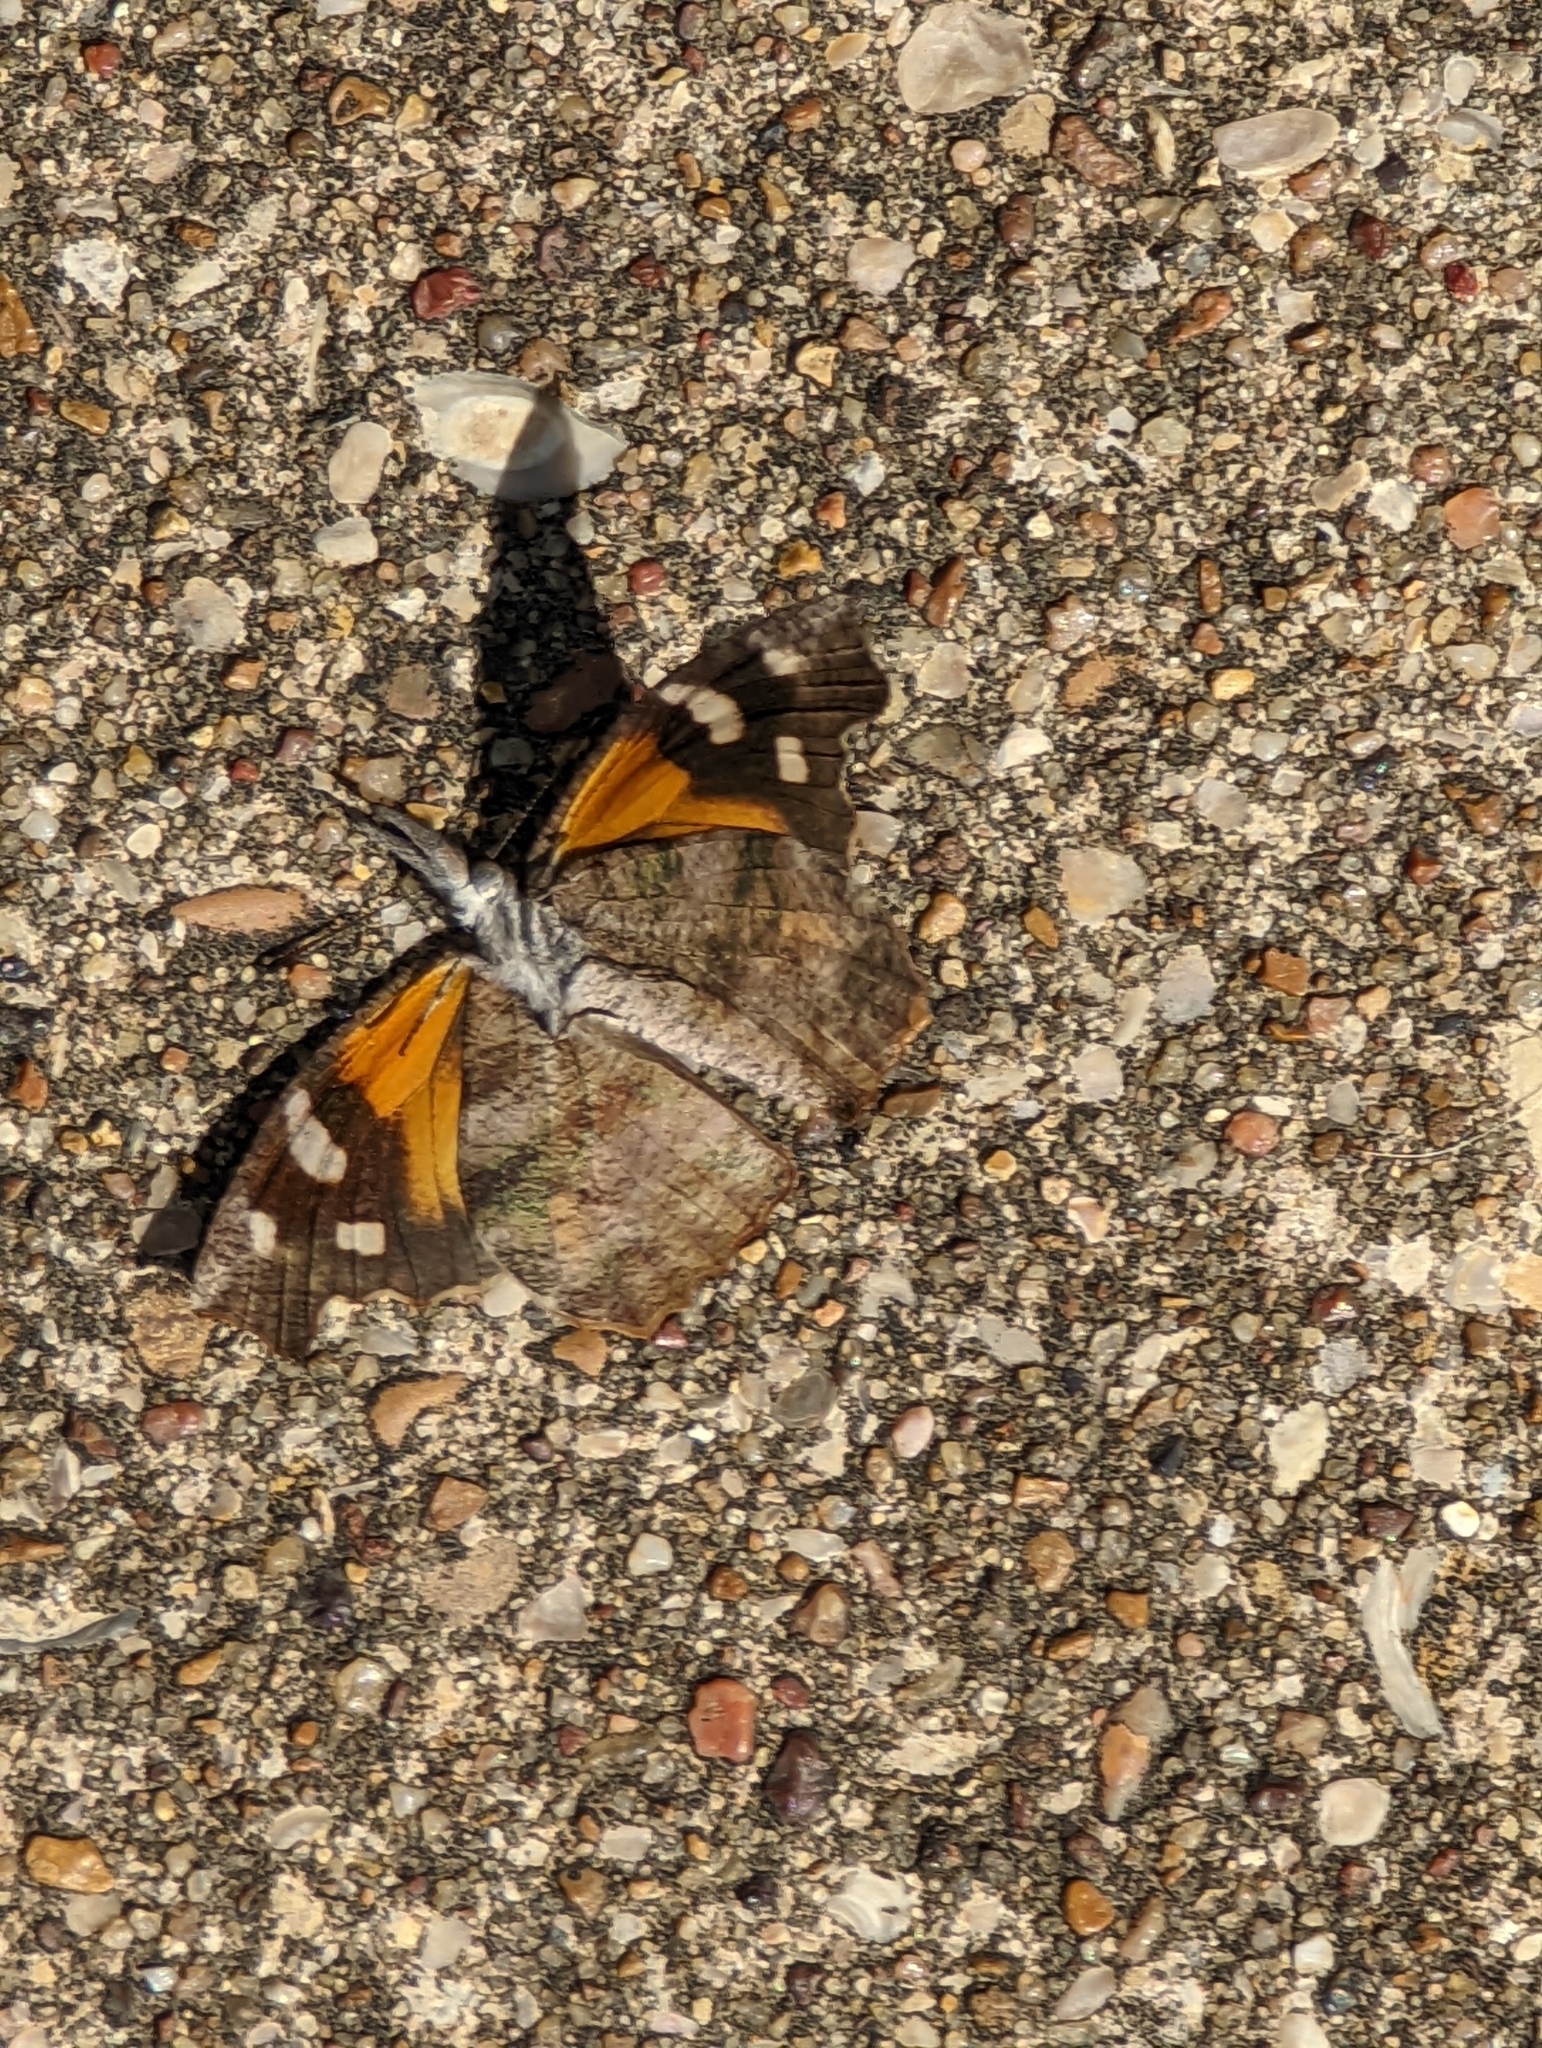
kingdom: Animalia
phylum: Arthropoda
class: Insecta
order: Lepidoptera
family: Nymphalidae
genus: Libytheana
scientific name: Libytheana carinenta
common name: American snout
